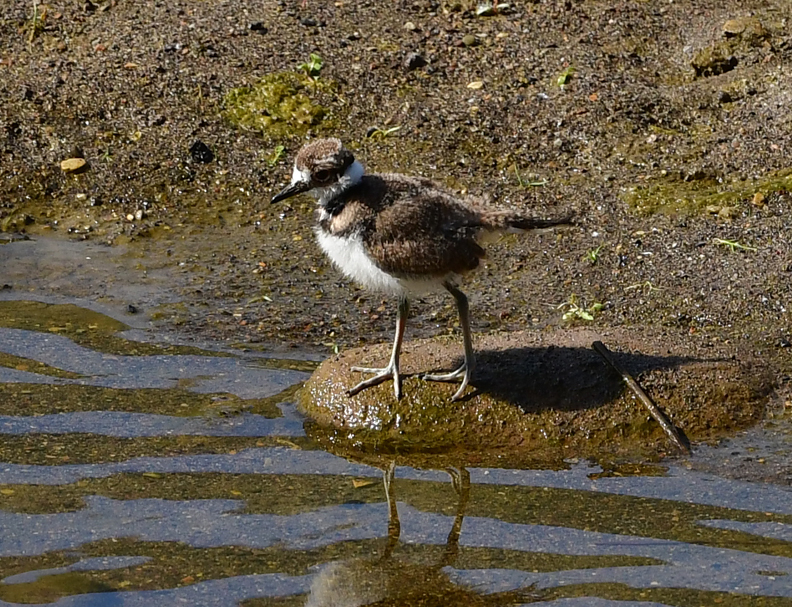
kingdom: Animalia
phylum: Chordata
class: Aves
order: Charadriiformes
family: Charadriidae
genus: Charadrius
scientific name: Charadrius vociferus
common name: Killdeer
